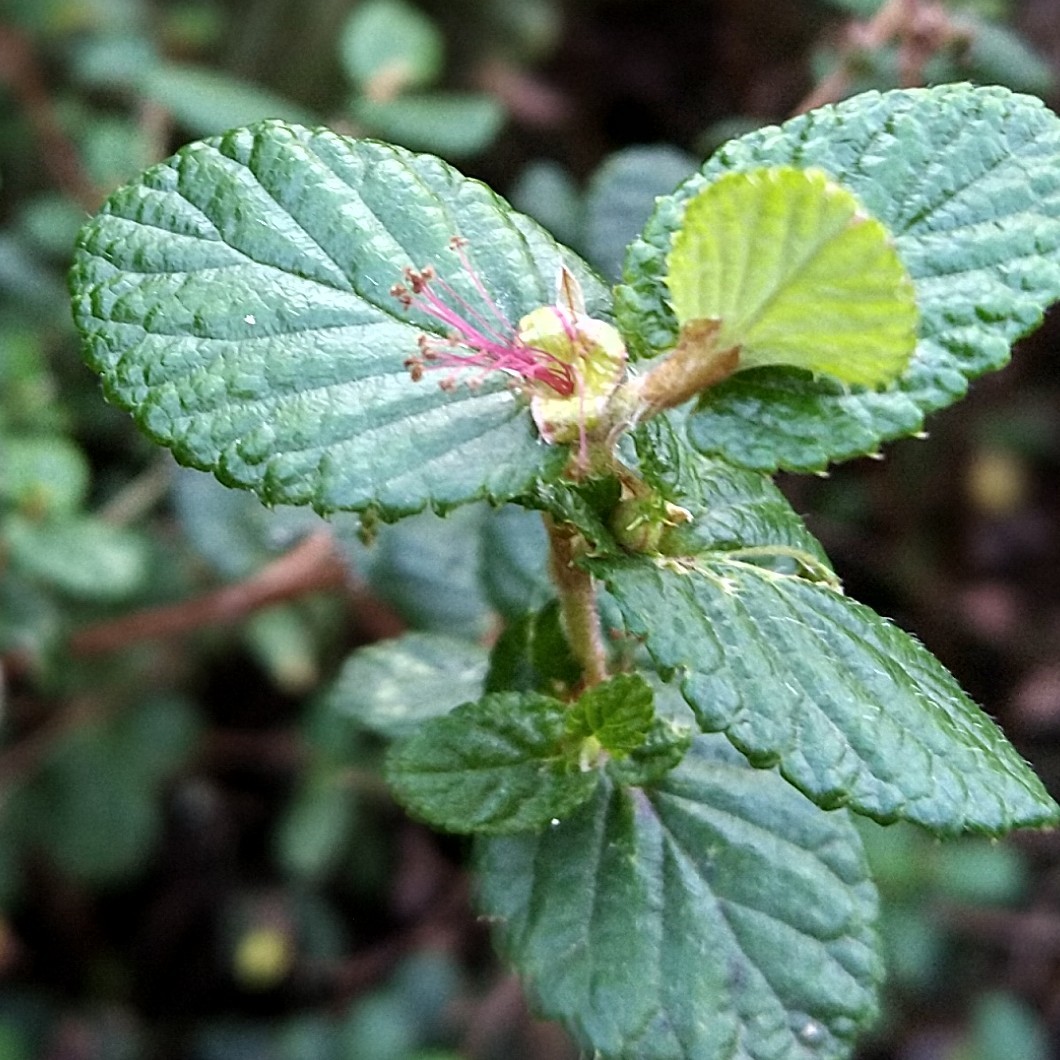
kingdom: Plantae
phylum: Tracheophyta
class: Magnoliopsida
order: Rosales
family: Rosaceae
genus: Cliffortia
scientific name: Cliffortia odorata
